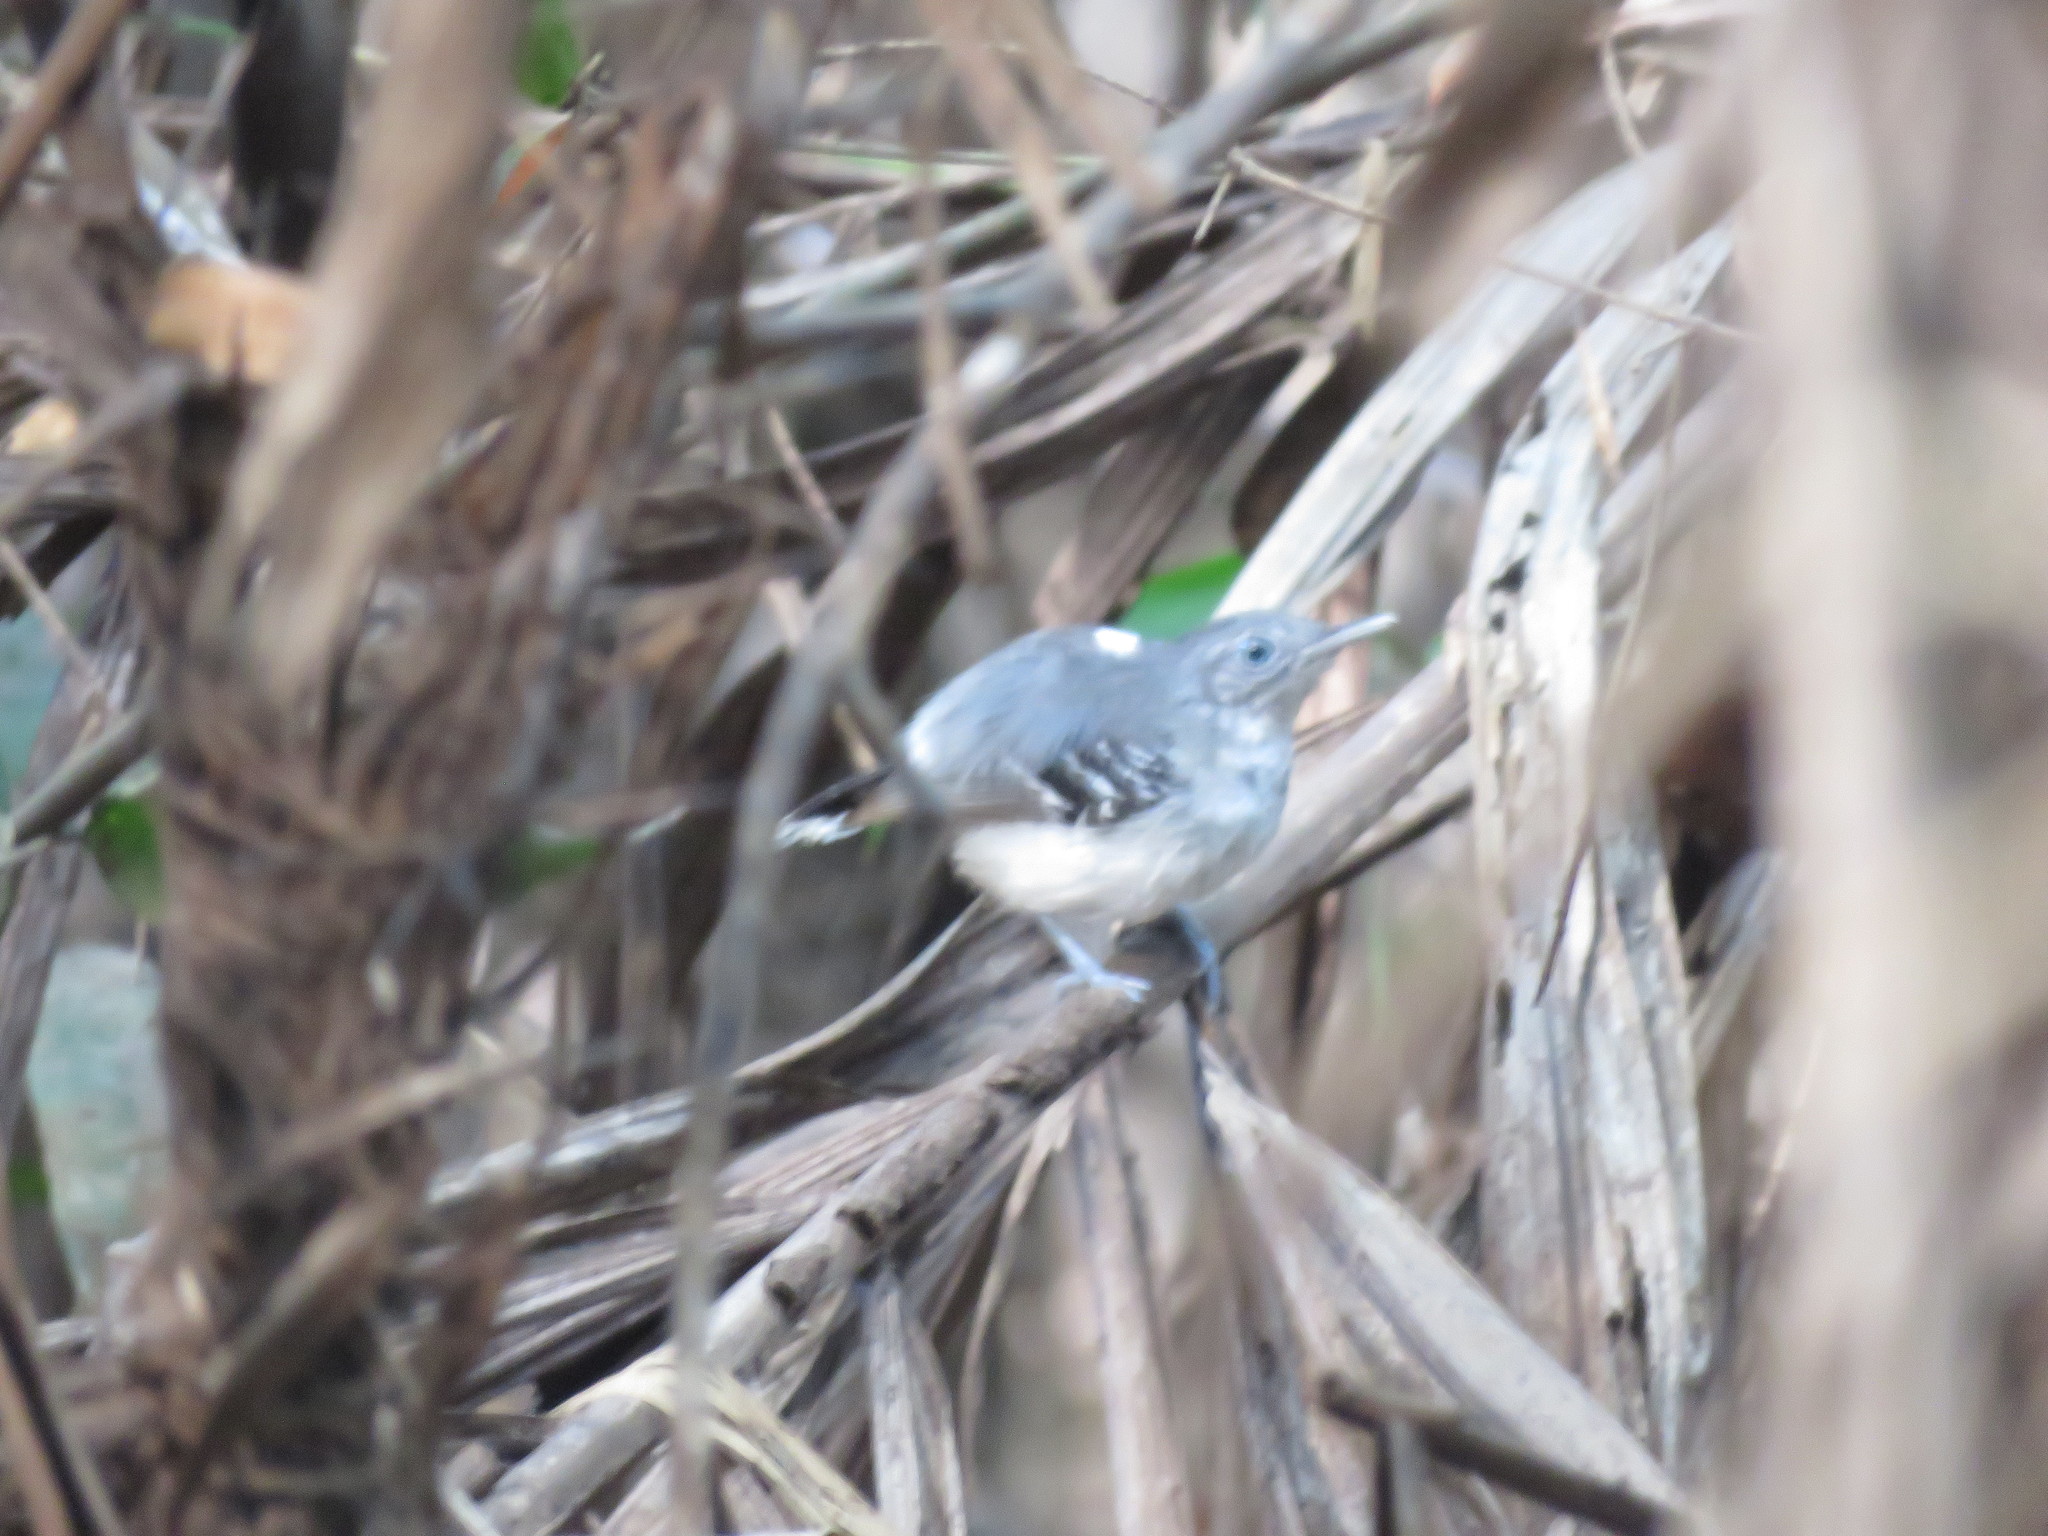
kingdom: Animalia
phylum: Chordata
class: Aves
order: Passeriformes
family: Thamnophilidae
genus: Hypocnemoides
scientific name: Hypocnemoides maculicauda
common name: Band-tailed antbird
